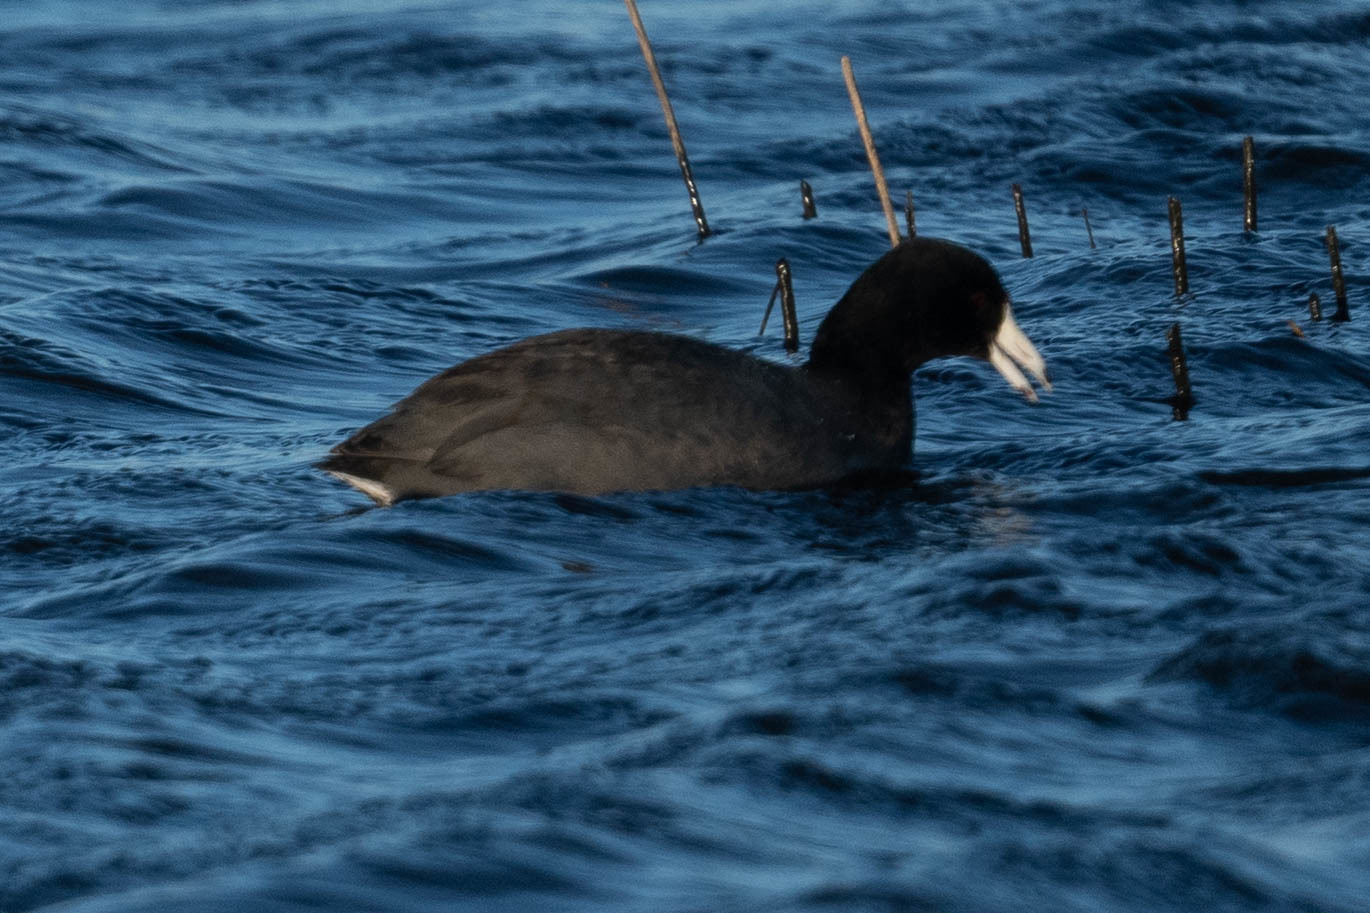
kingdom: Animalia
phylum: Chordata
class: Aves
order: Gruiformes
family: Rallidae
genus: Fulica
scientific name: Fulica americana
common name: American coot
